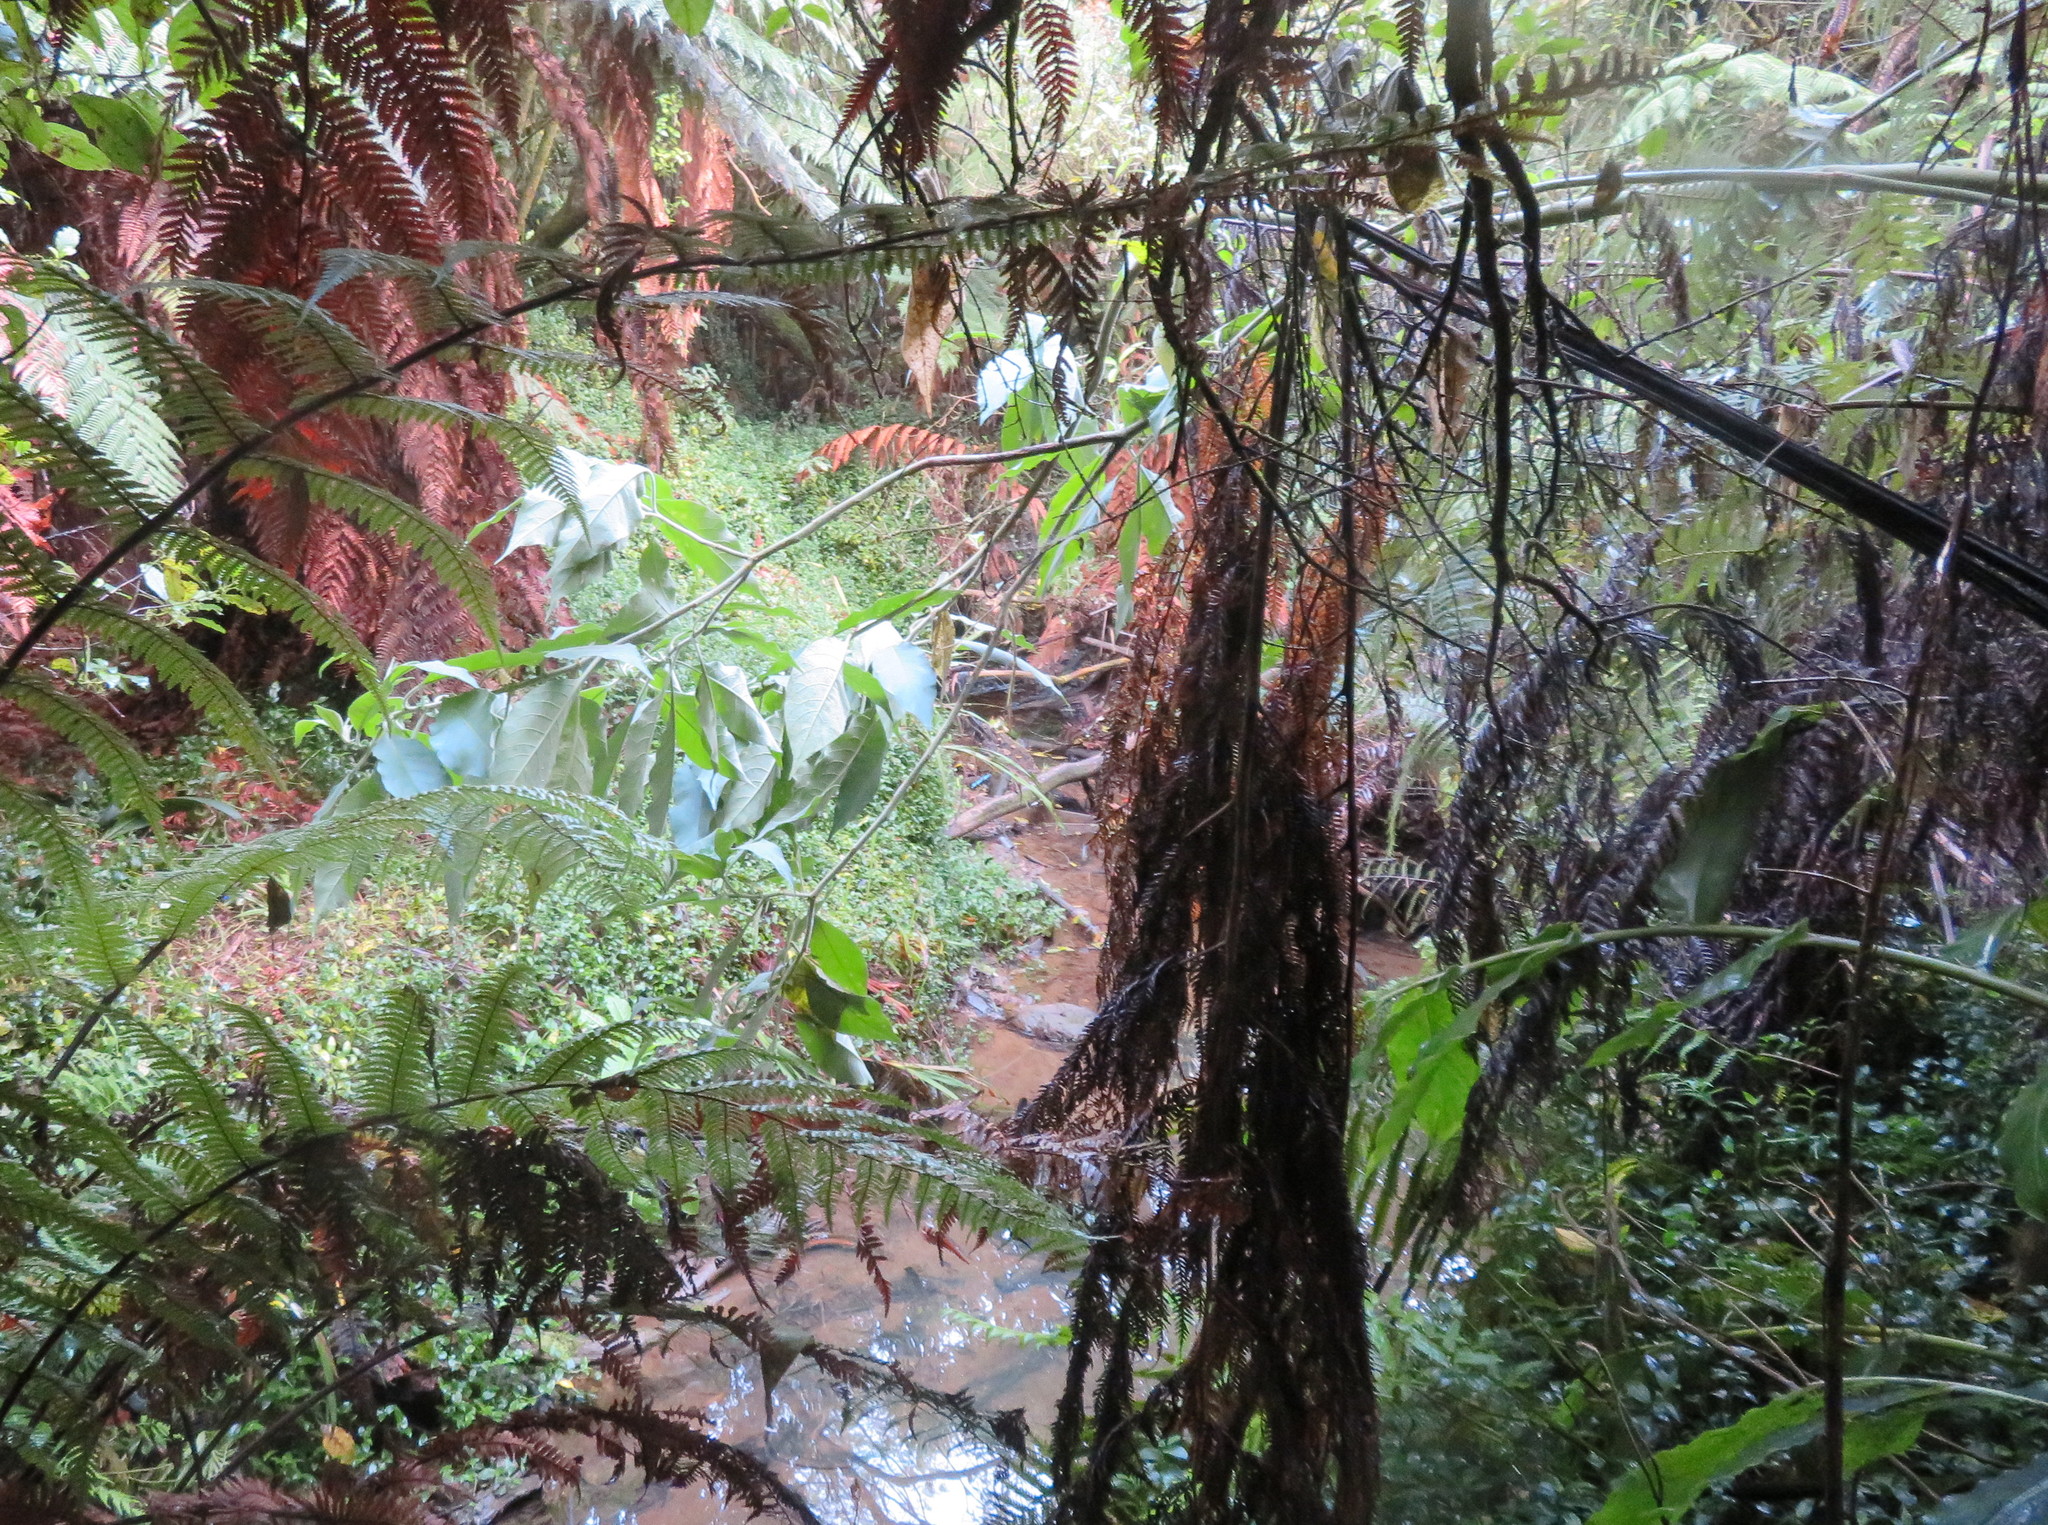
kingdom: Plantae
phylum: Tracheophyta
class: Liliopsida
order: Commelinales
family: Commelinaceae
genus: Tradescantia
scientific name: Tradescantia fluminensis
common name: Wandering-jew
